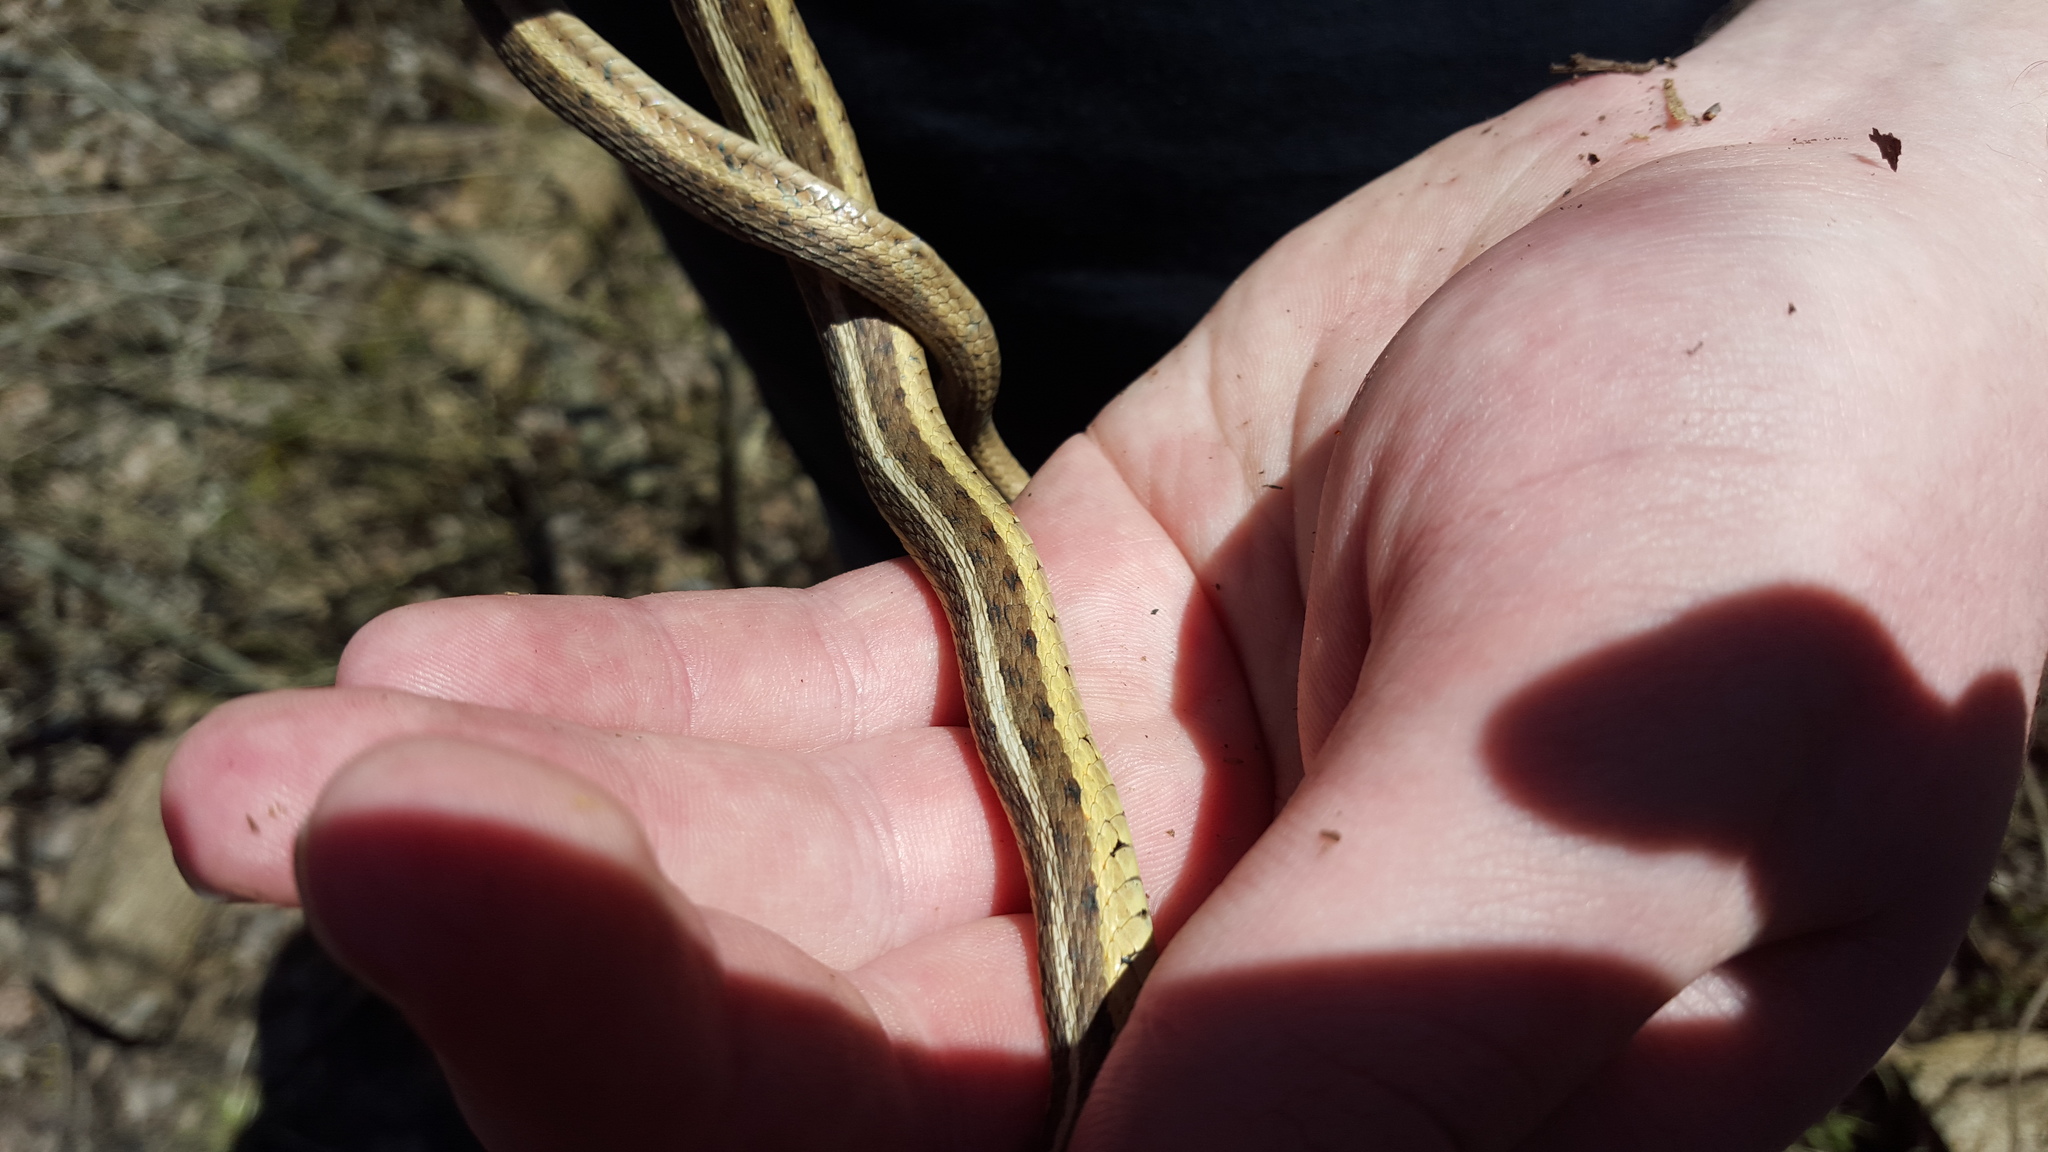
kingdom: Animalia
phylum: Chordata
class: Squamata
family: Colubridae
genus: Thamnophis
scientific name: Thamnophis sirtalis
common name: Common garter snake
